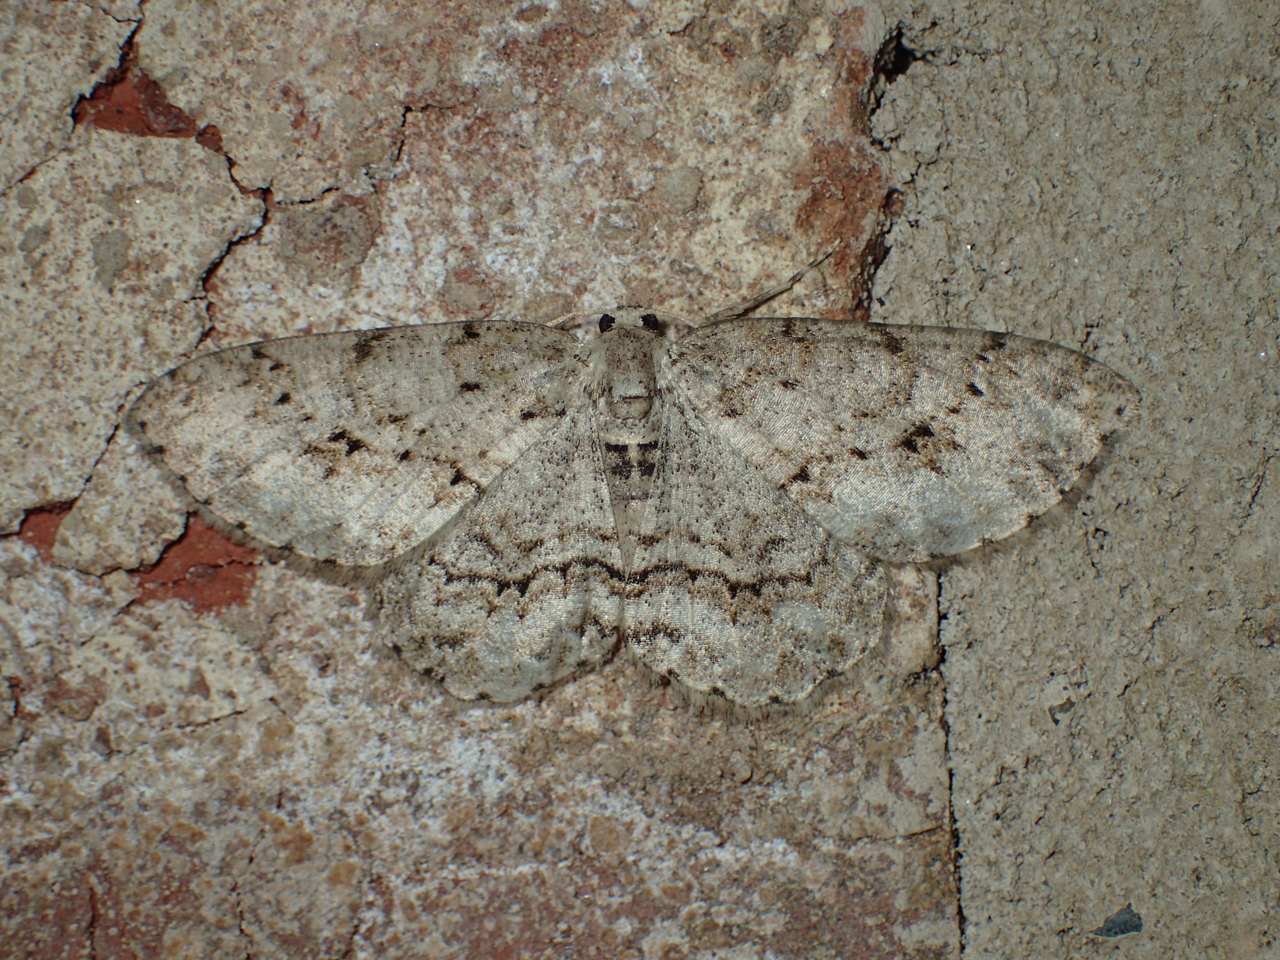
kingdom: Animalia
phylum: Arthropoda
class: Insecta
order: Lepidoptera
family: Geometridae
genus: Ectropis
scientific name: Ectropis crepuscularia
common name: Engrailed
